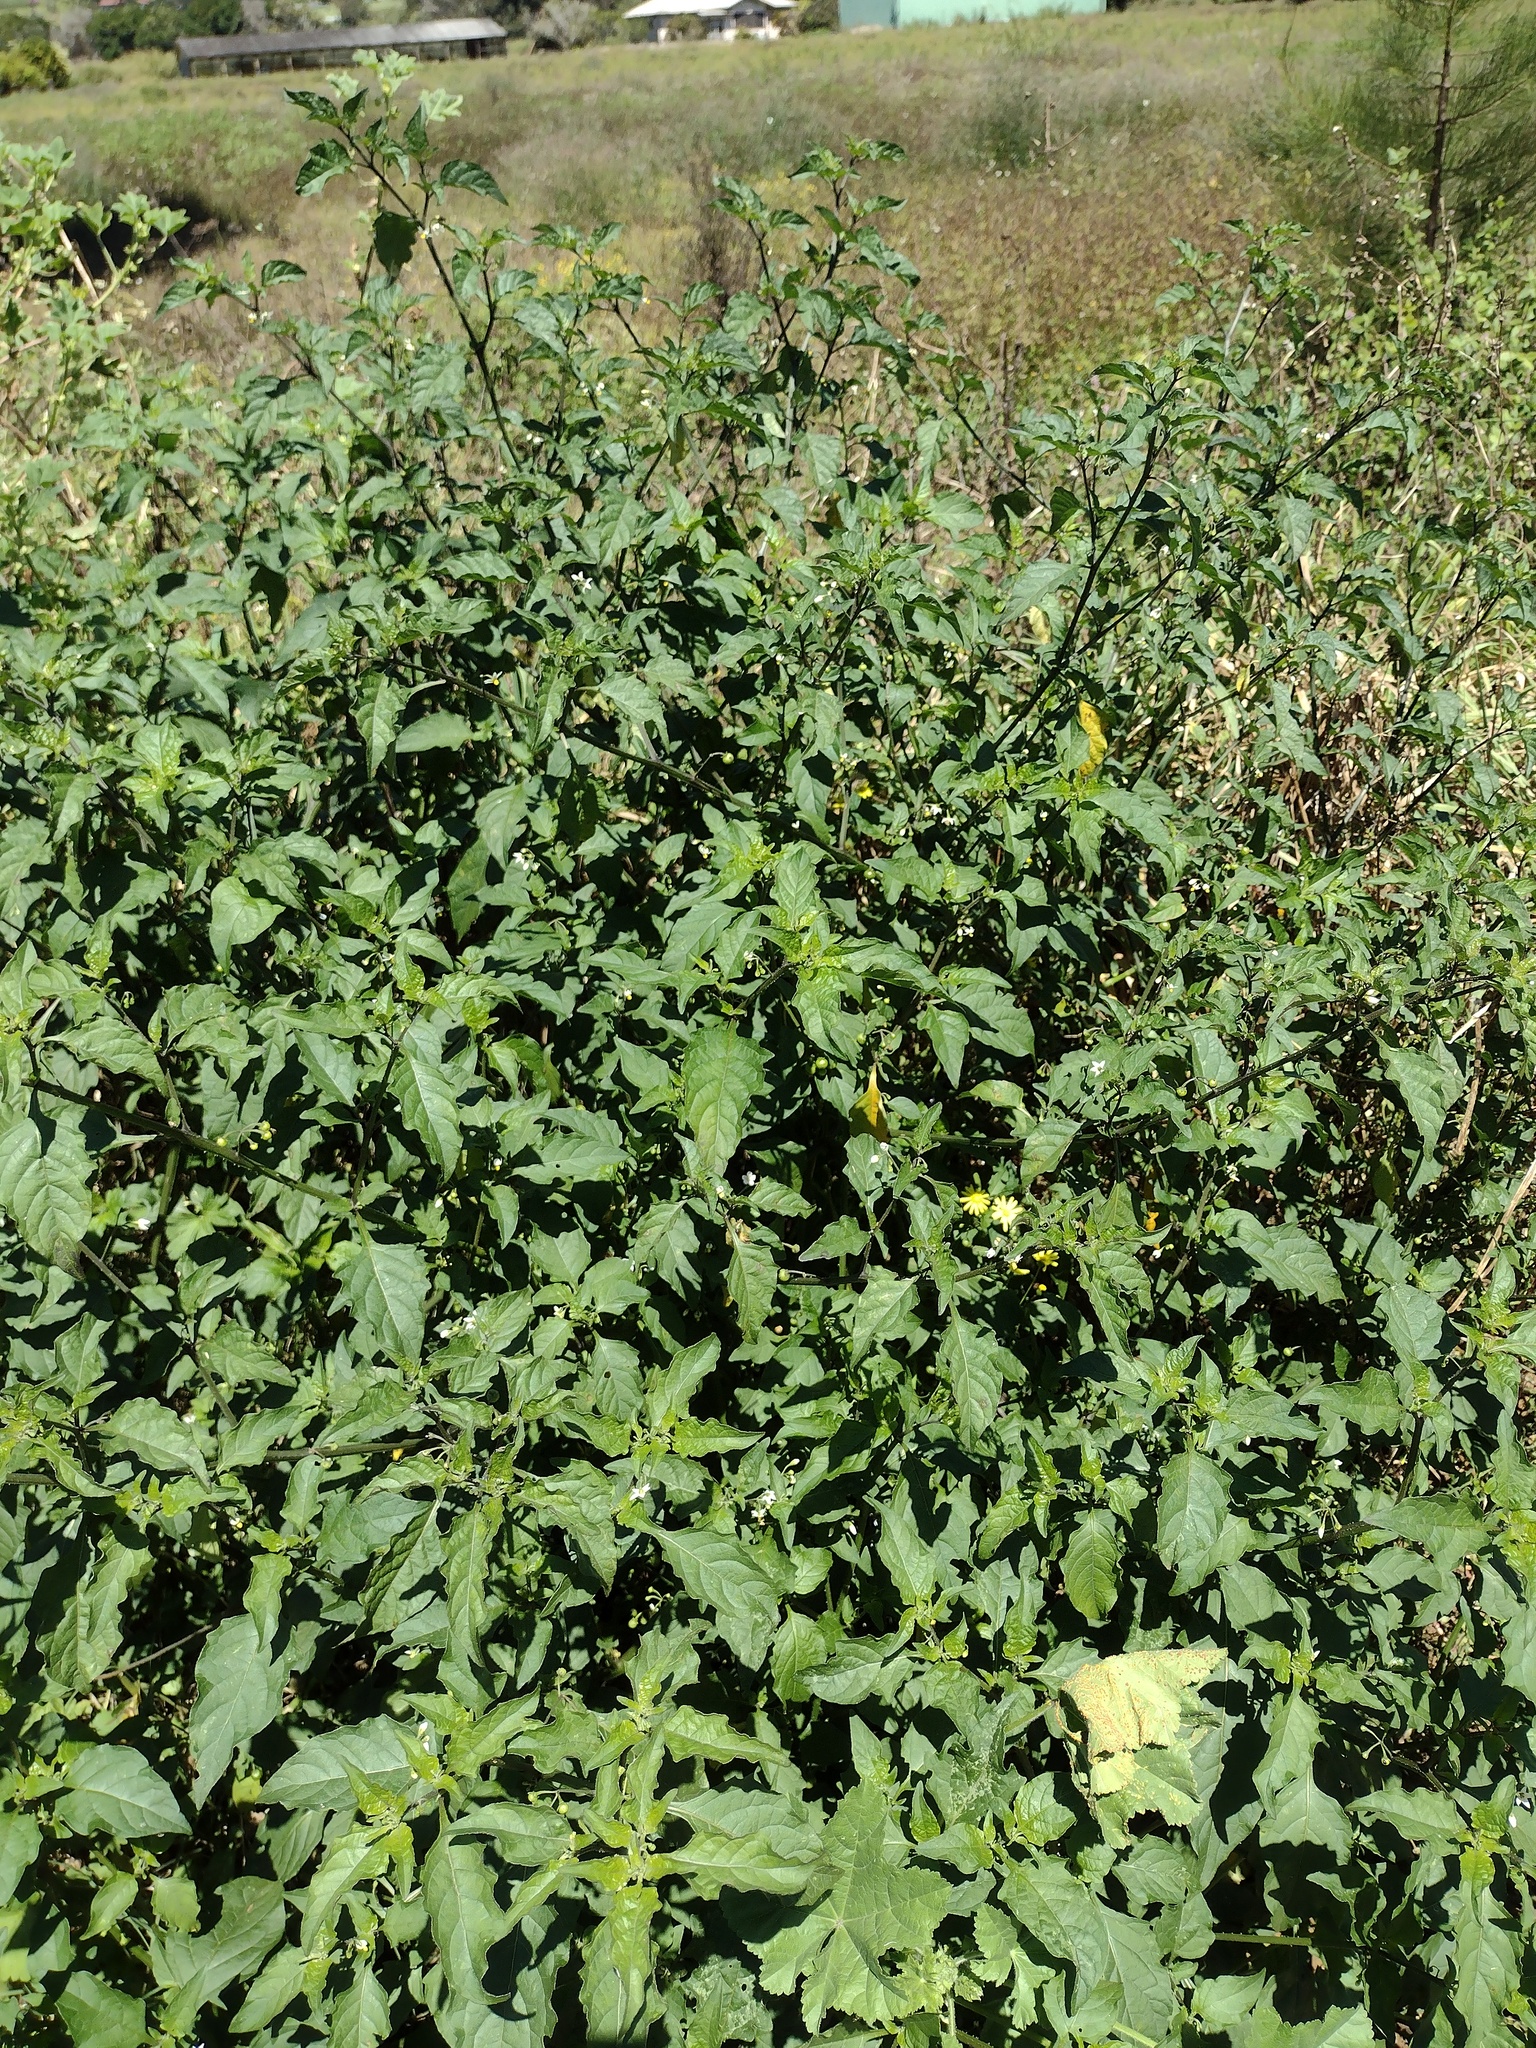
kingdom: Plantae
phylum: Tracheophyta
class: Magnoliopsida
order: Solanales
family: Solanaceae
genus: Solanum
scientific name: Solanum americanum
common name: American black nightshade
